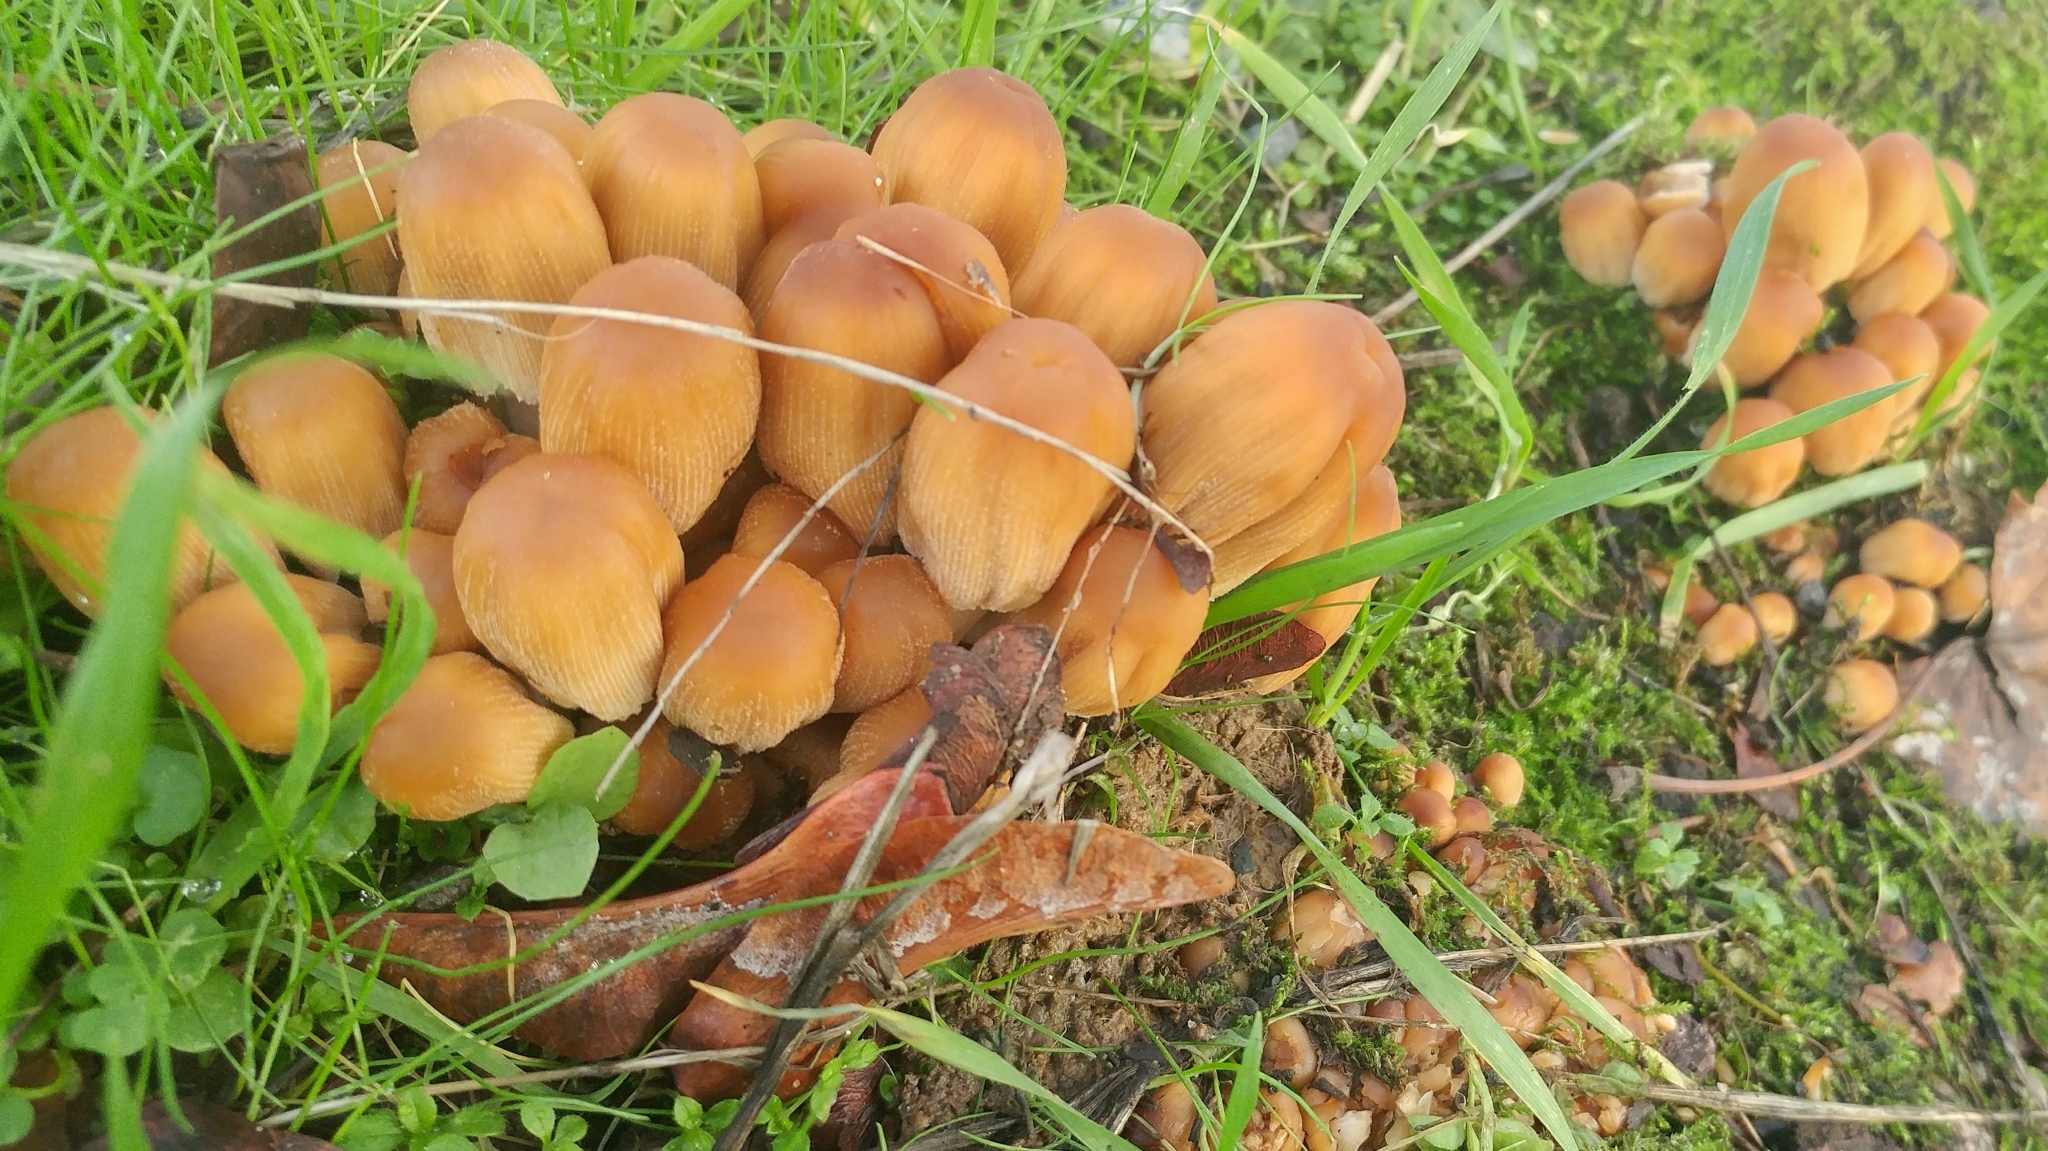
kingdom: Fungi
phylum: Basidiomycota
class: Agaricomycetes
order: Agaricales
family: Psathyrellaceae
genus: Coprinellus
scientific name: Coprinellus micaceus
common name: Glistening ink-cap
